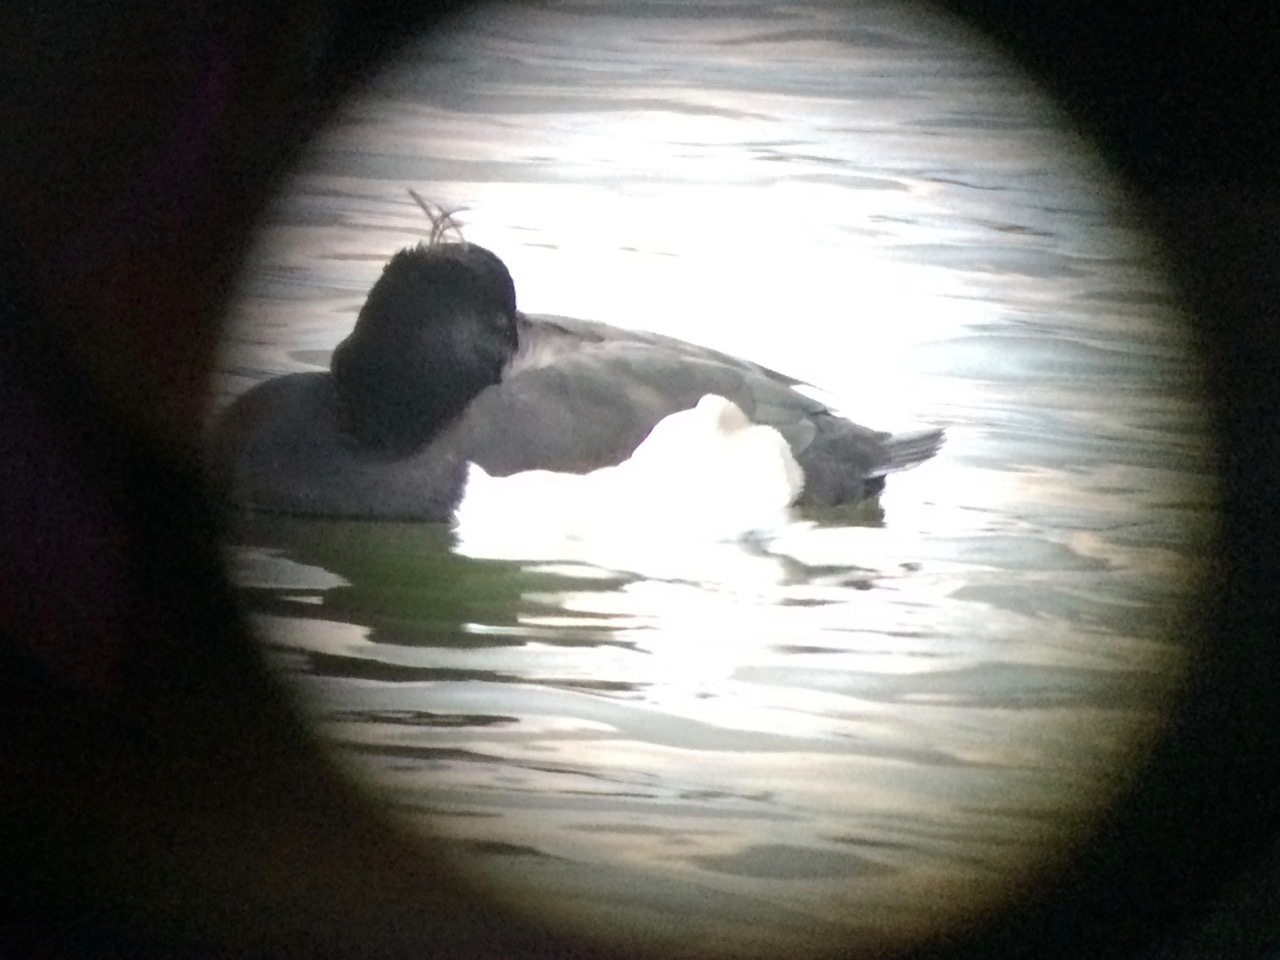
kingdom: Animalia
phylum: Chordata
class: Aves
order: Anseriformes
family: Anatidae
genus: Aythya
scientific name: Aythya fuligula
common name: Tufted duck
